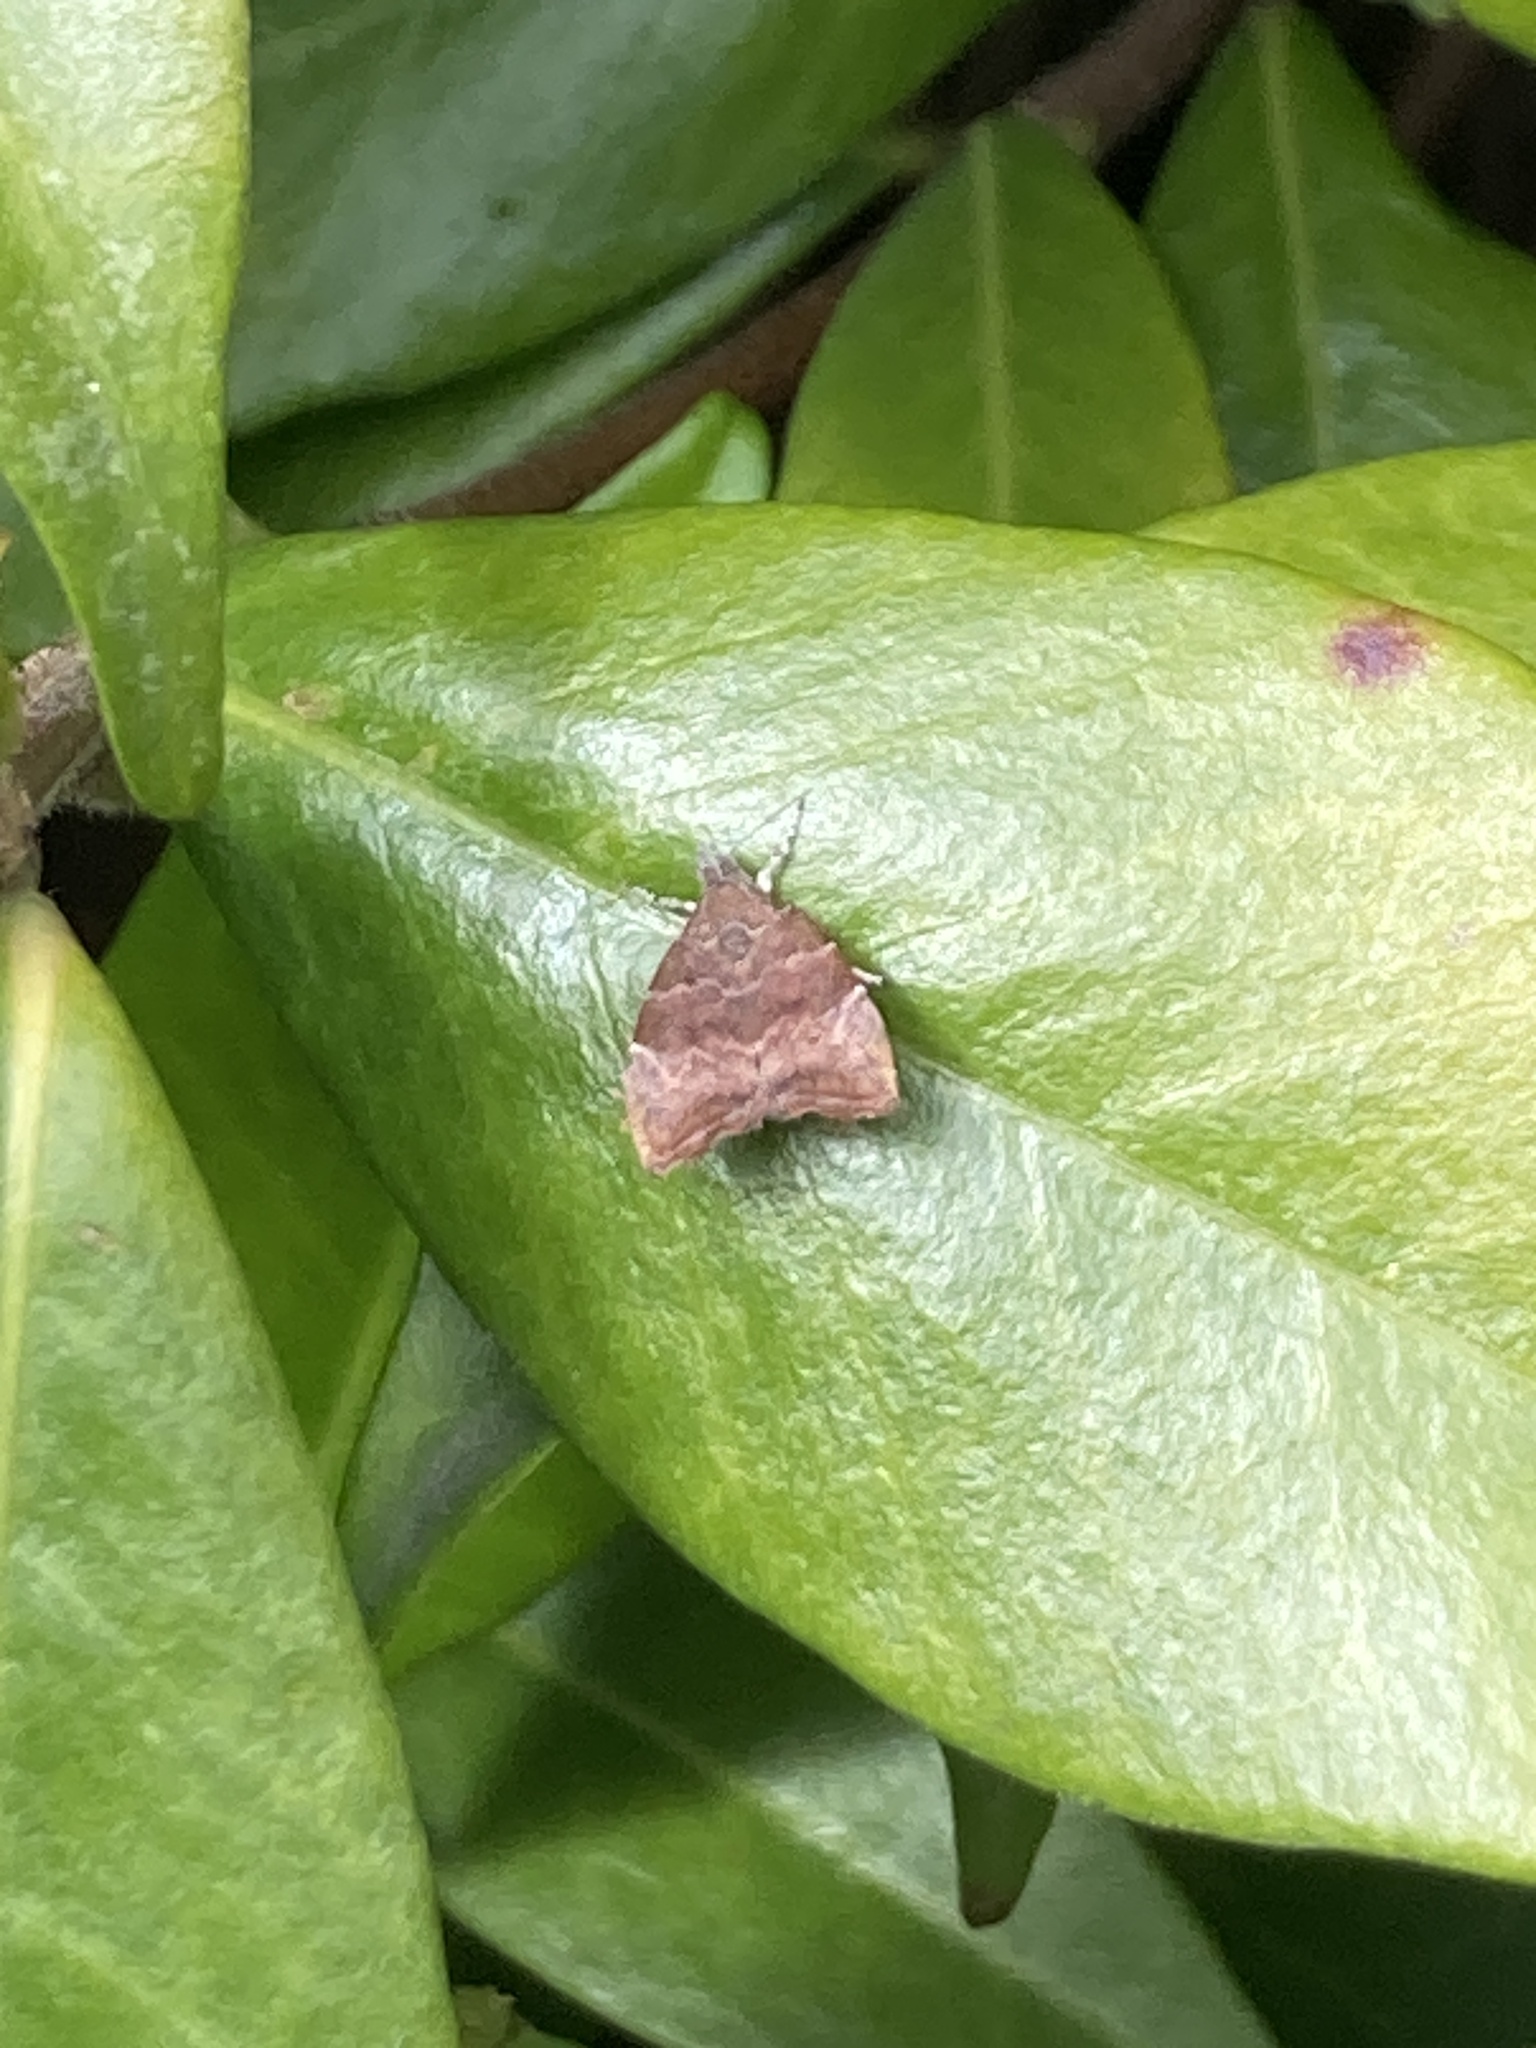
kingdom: Animalia
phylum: Arthropoda
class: Insecta
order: Lepidoptera
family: Choreutidae
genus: Anthophila
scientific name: Anthophila nemorana
